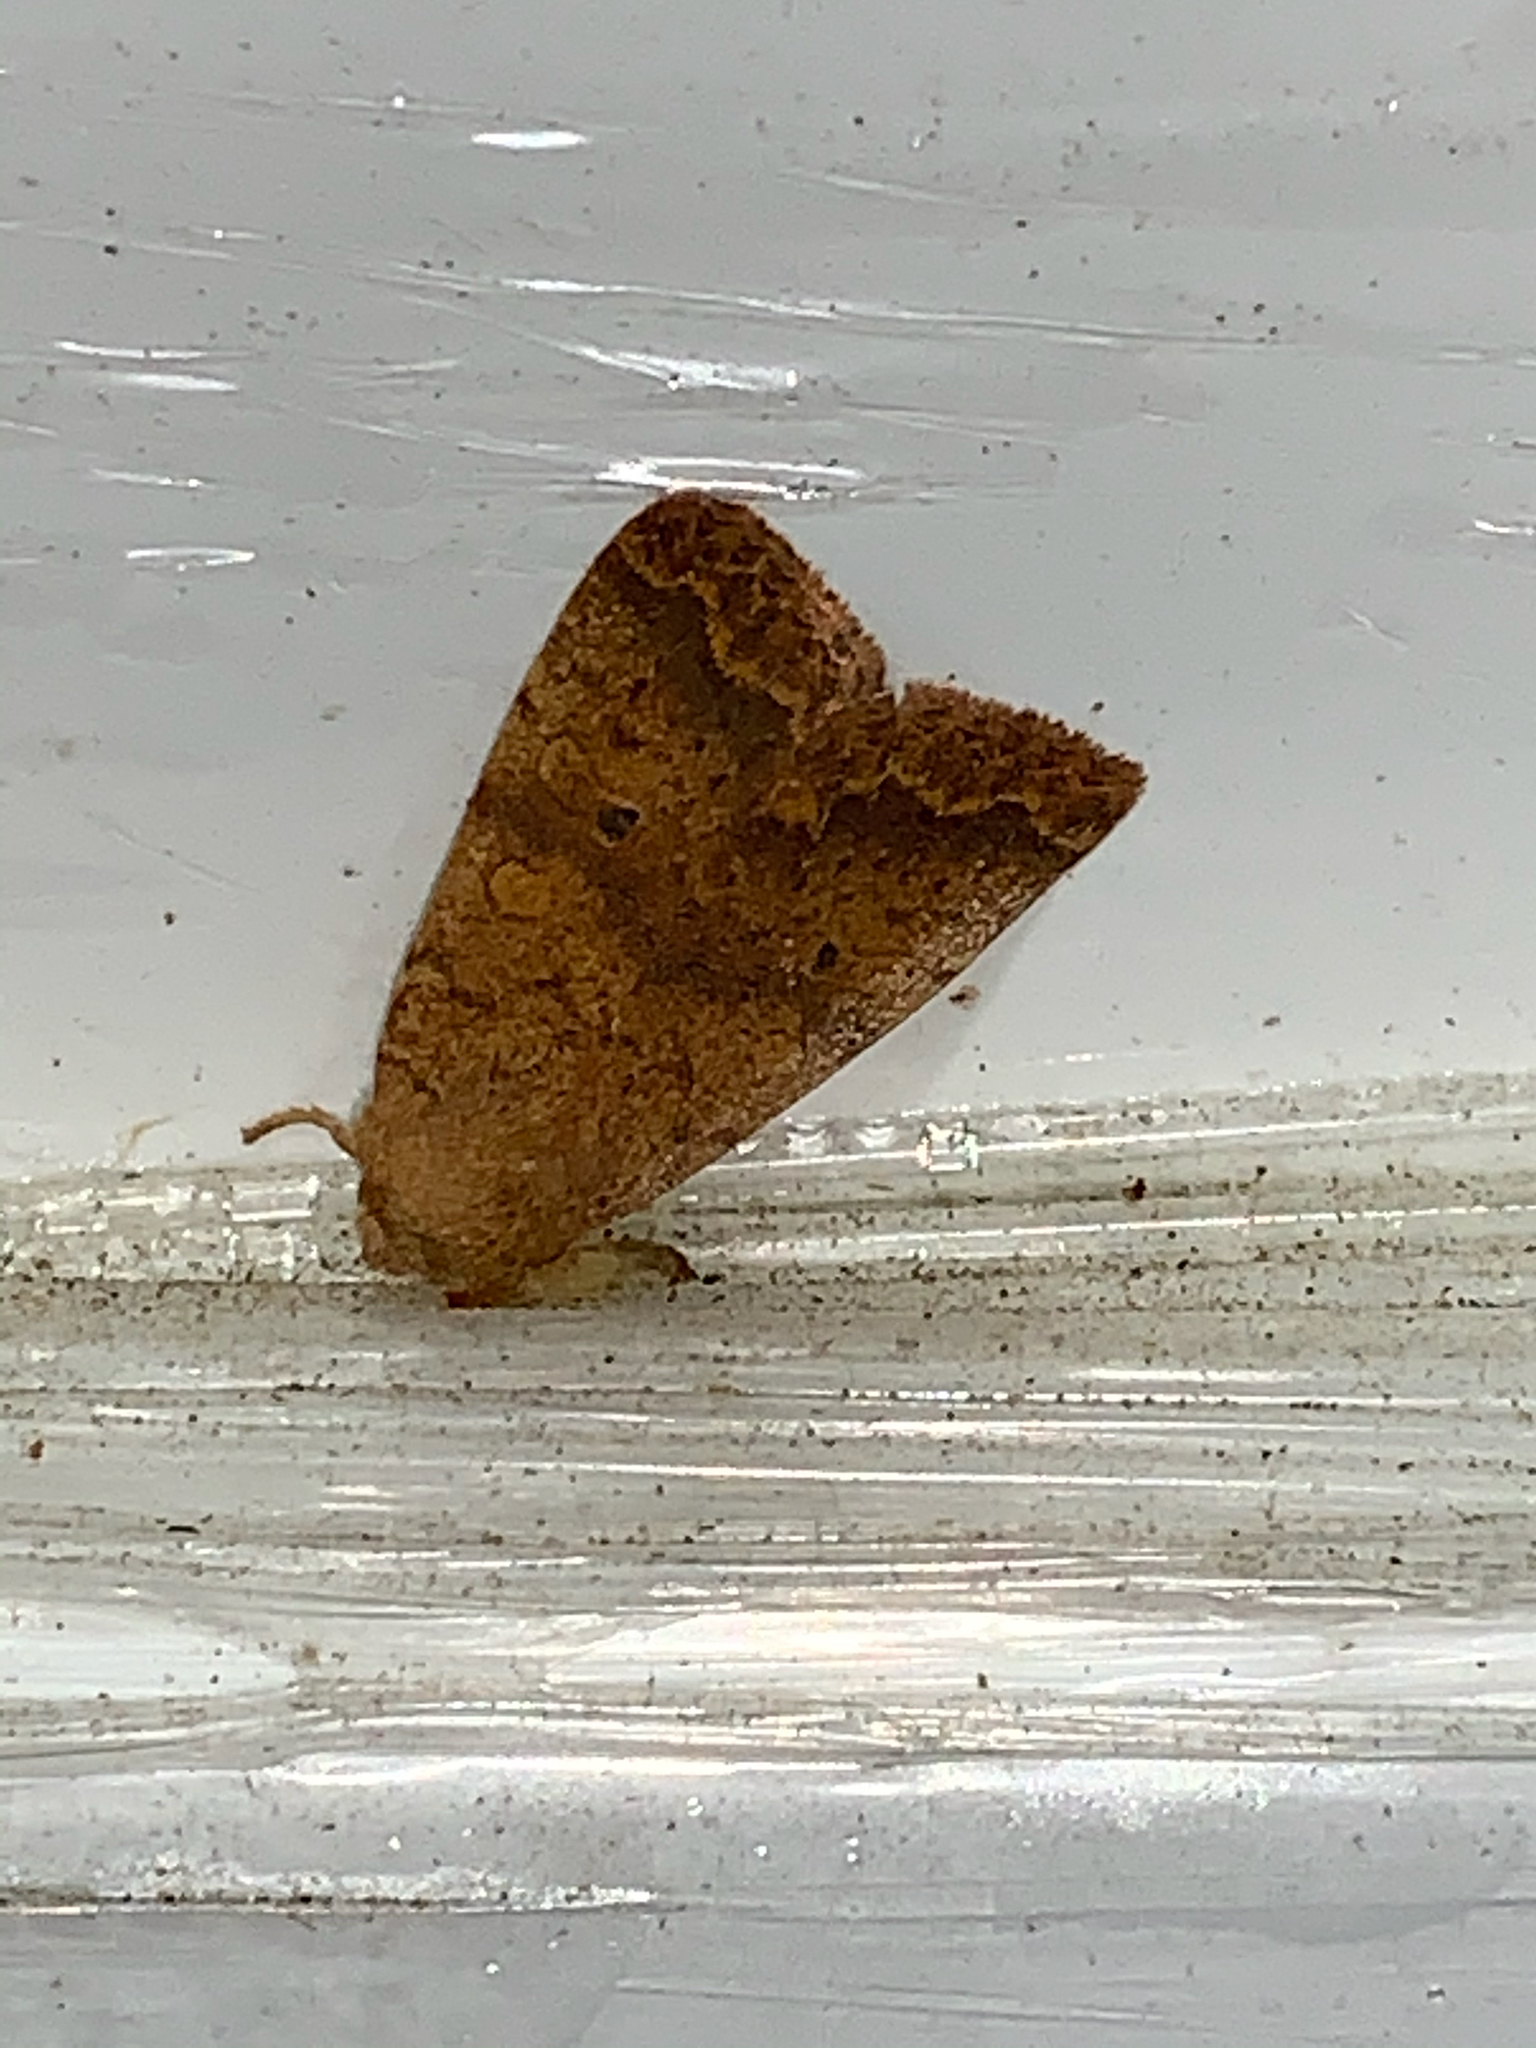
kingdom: Animalia
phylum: Arthropoda
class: Insecta
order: Lepidoptera
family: Noctuidae
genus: Agrochola
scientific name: Agrochola bicolorago
